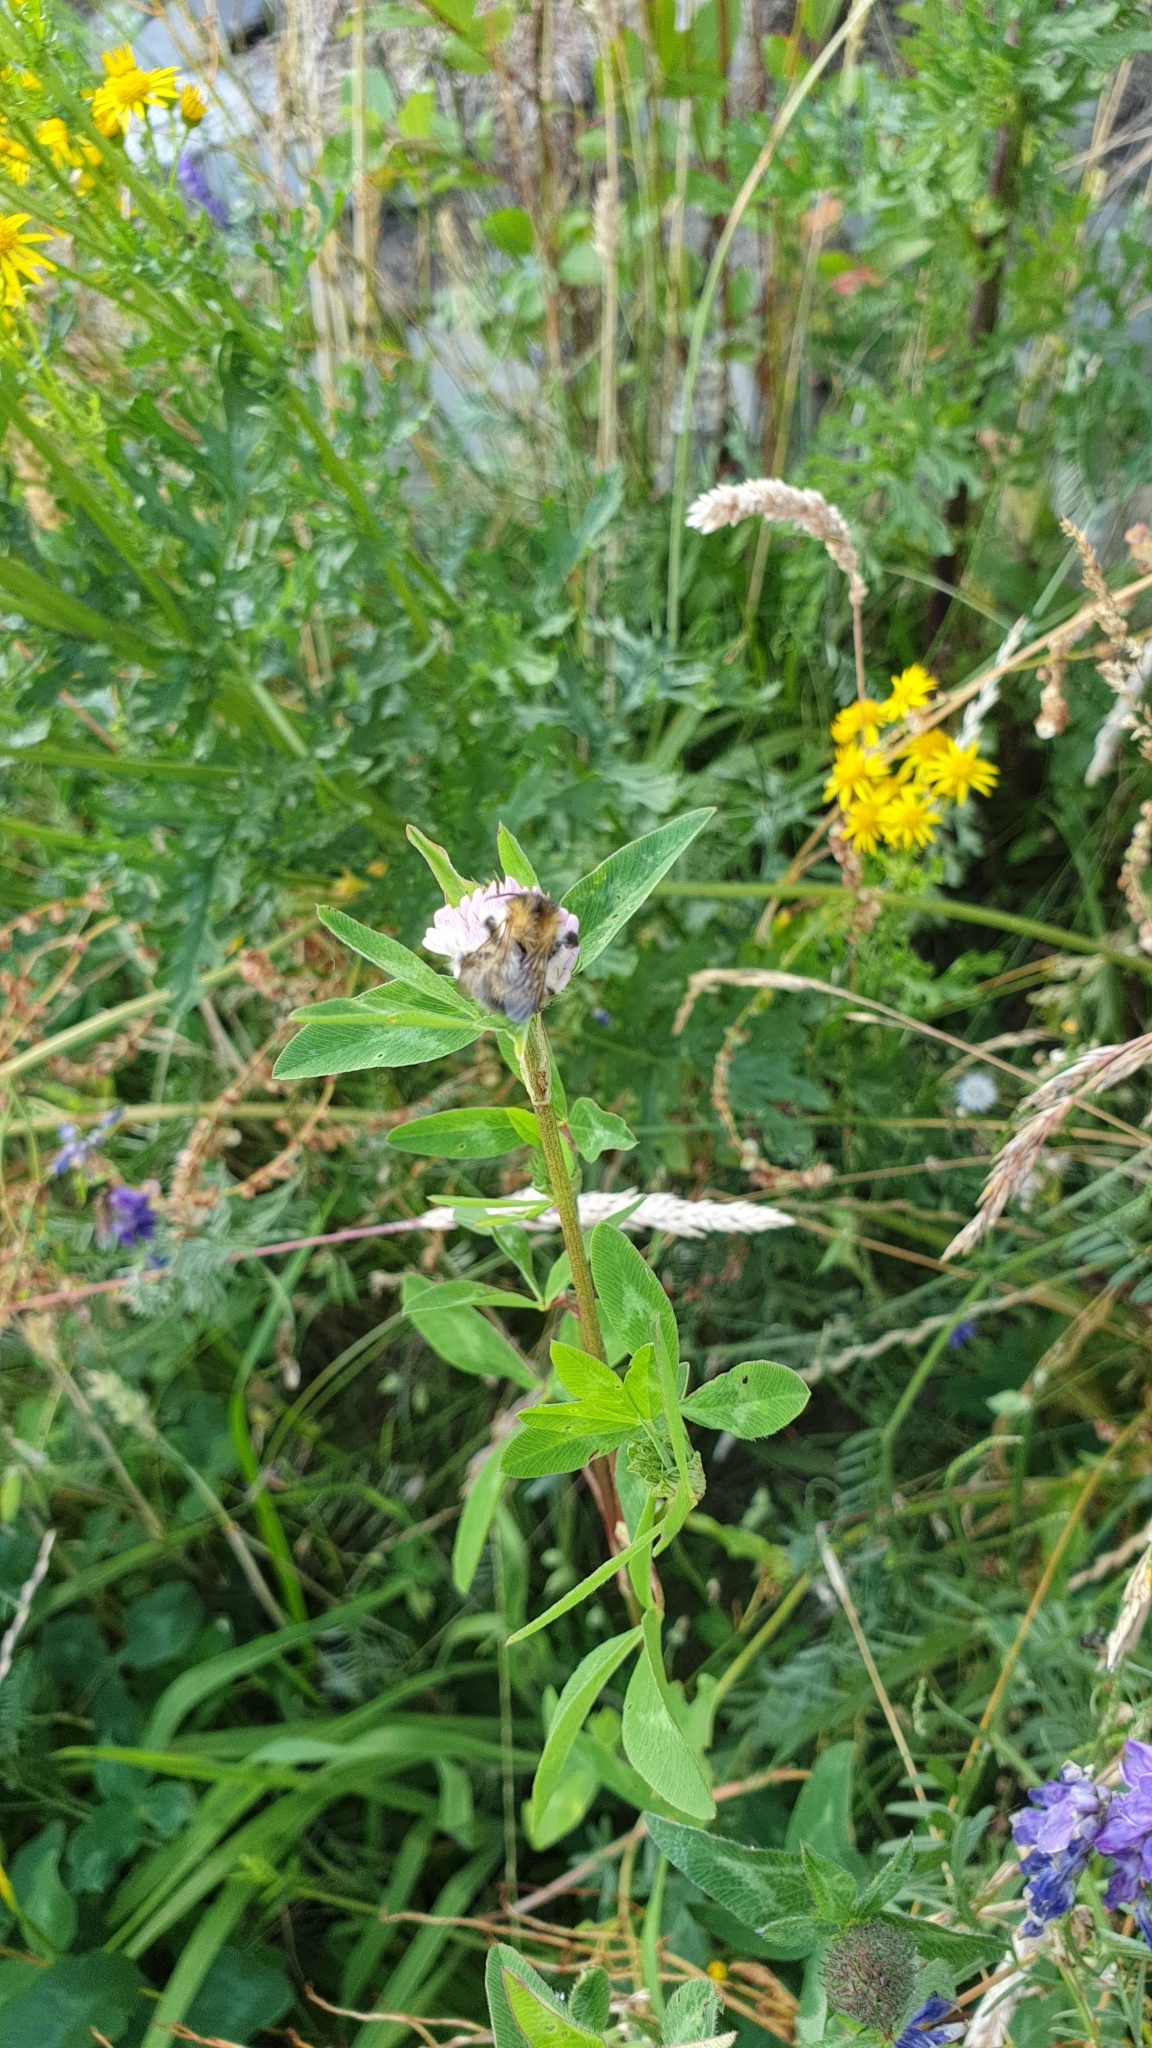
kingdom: Animalia
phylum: Arthropoda
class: Insecta
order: Hymenoptera
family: Apidae
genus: Bombus
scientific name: Bombus pascuorum
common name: Common carder bee
